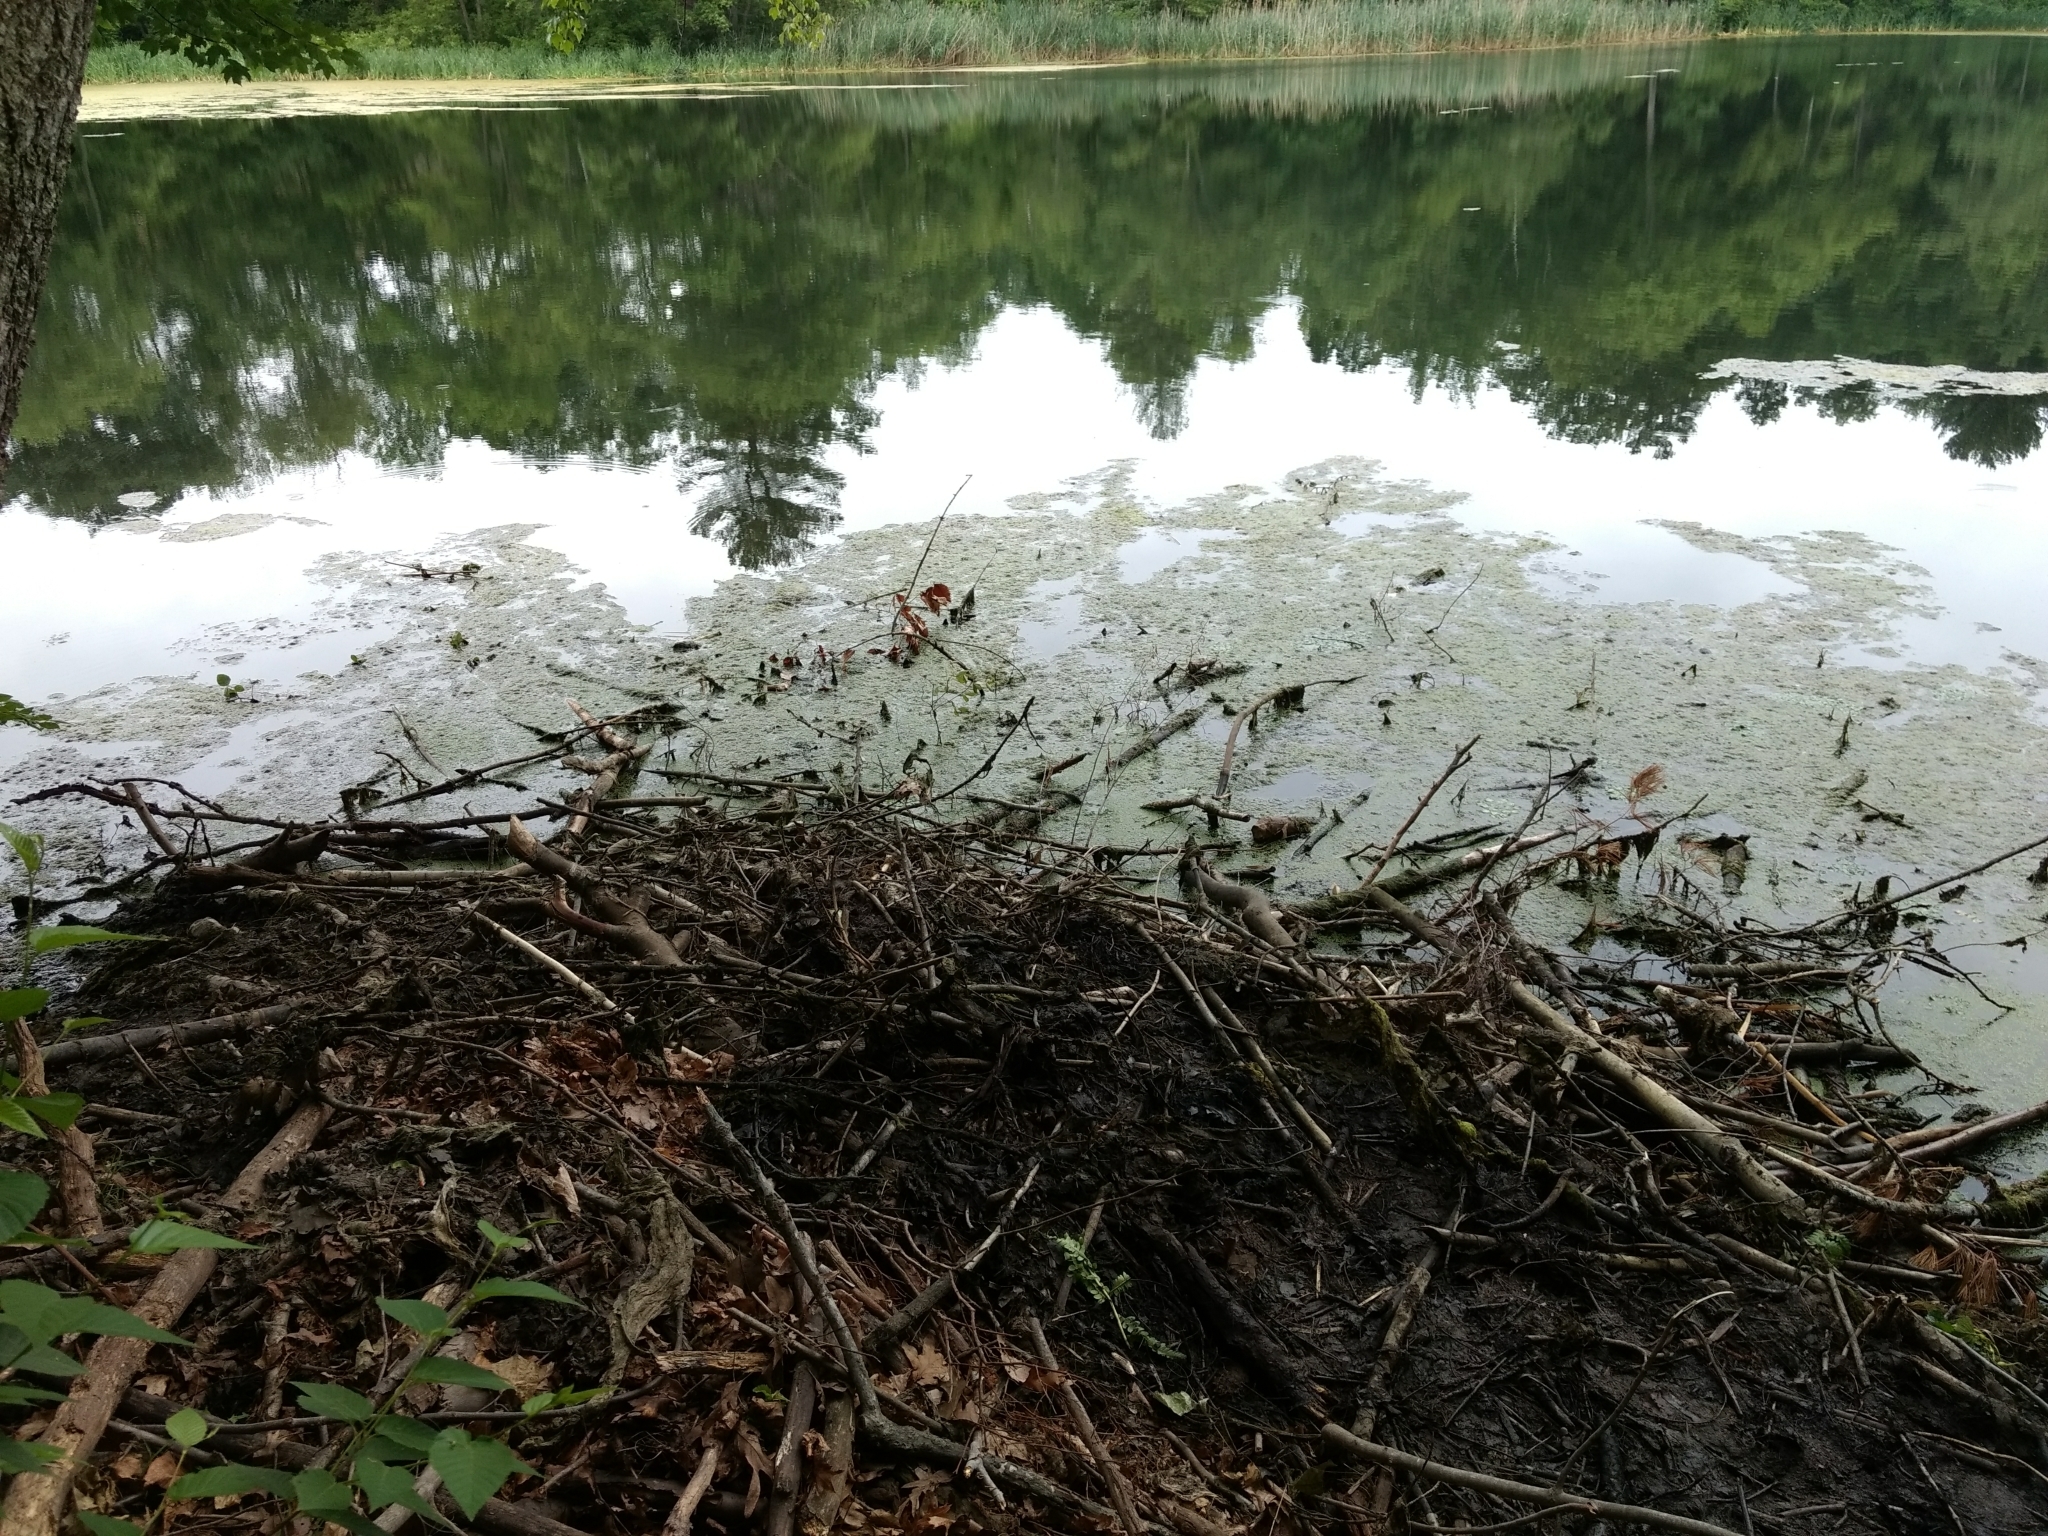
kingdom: Animalia
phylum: Chordata
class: Mammalia
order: Rodentia
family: Castoridae
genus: Castor
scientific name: Castor canadensis
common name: American beaver
